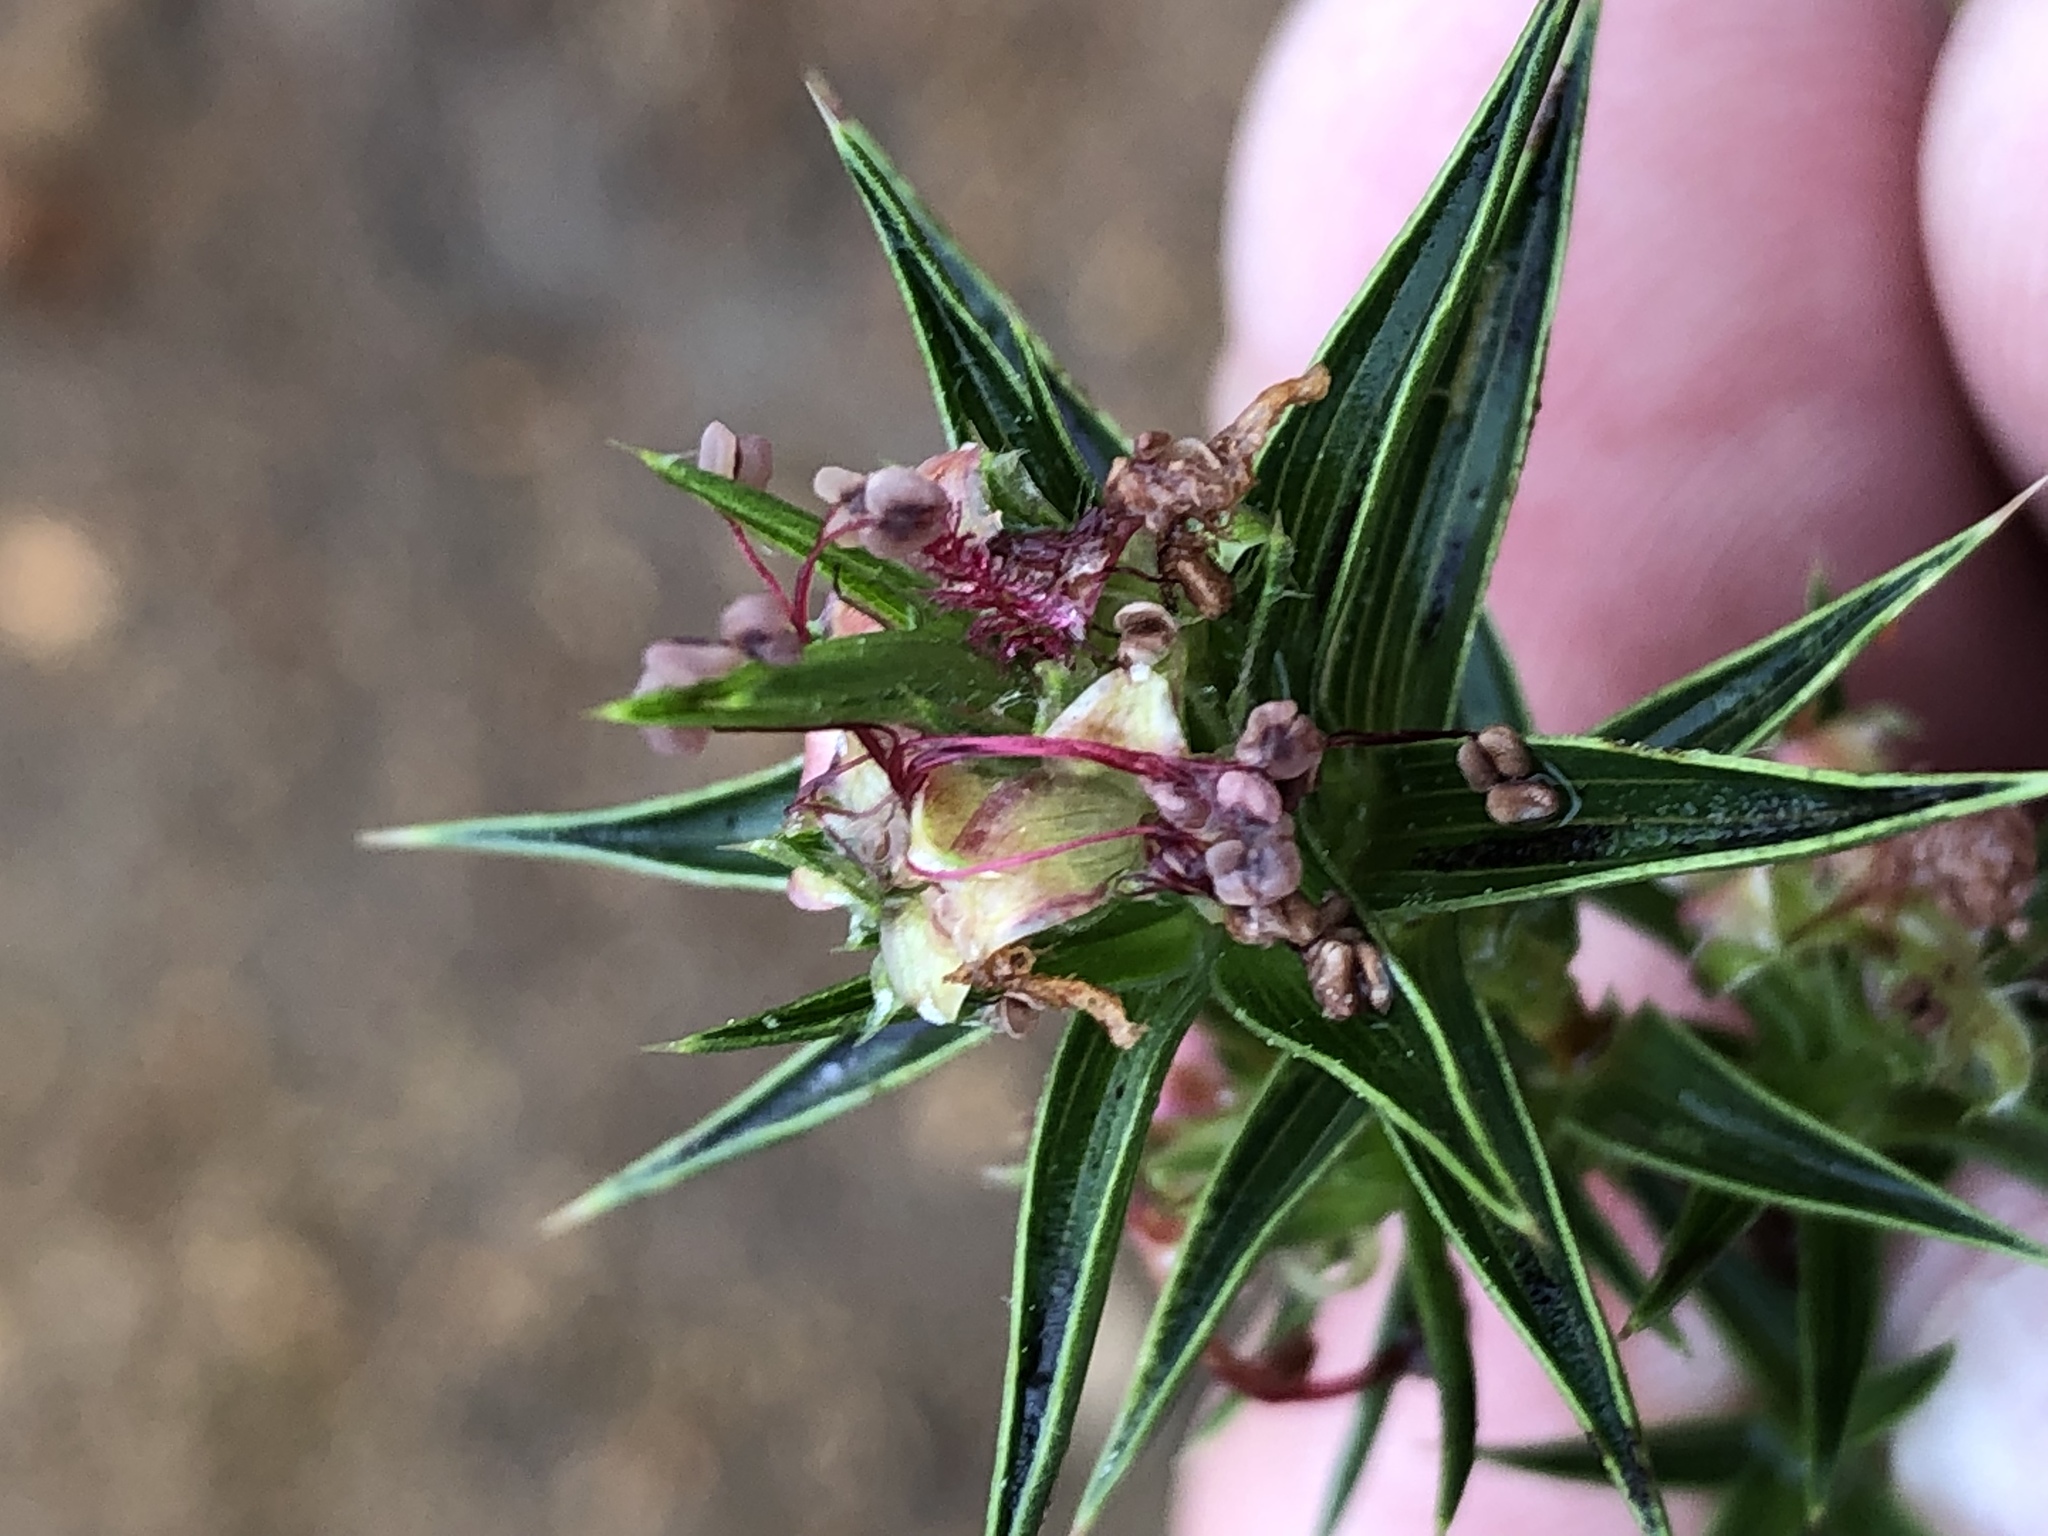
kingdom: Plantae
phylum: Tracheophyta
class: Magnoliopsida
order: Rosales
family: Rosaceae
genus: Cliffortia
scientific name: Cliffortia ruscifolia
